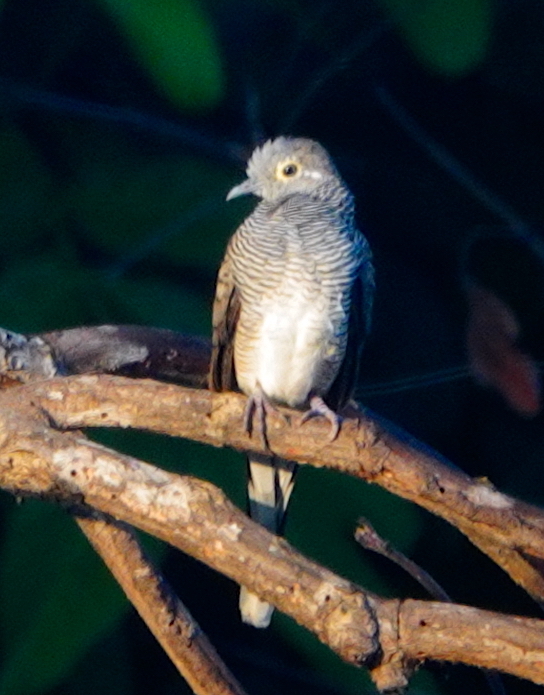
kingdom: Animalia
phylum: Chordata
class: Aves
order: Columbiformes
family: Columbidae
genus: Geopelia
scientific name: Geopelia maugeus
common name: Barred dove
